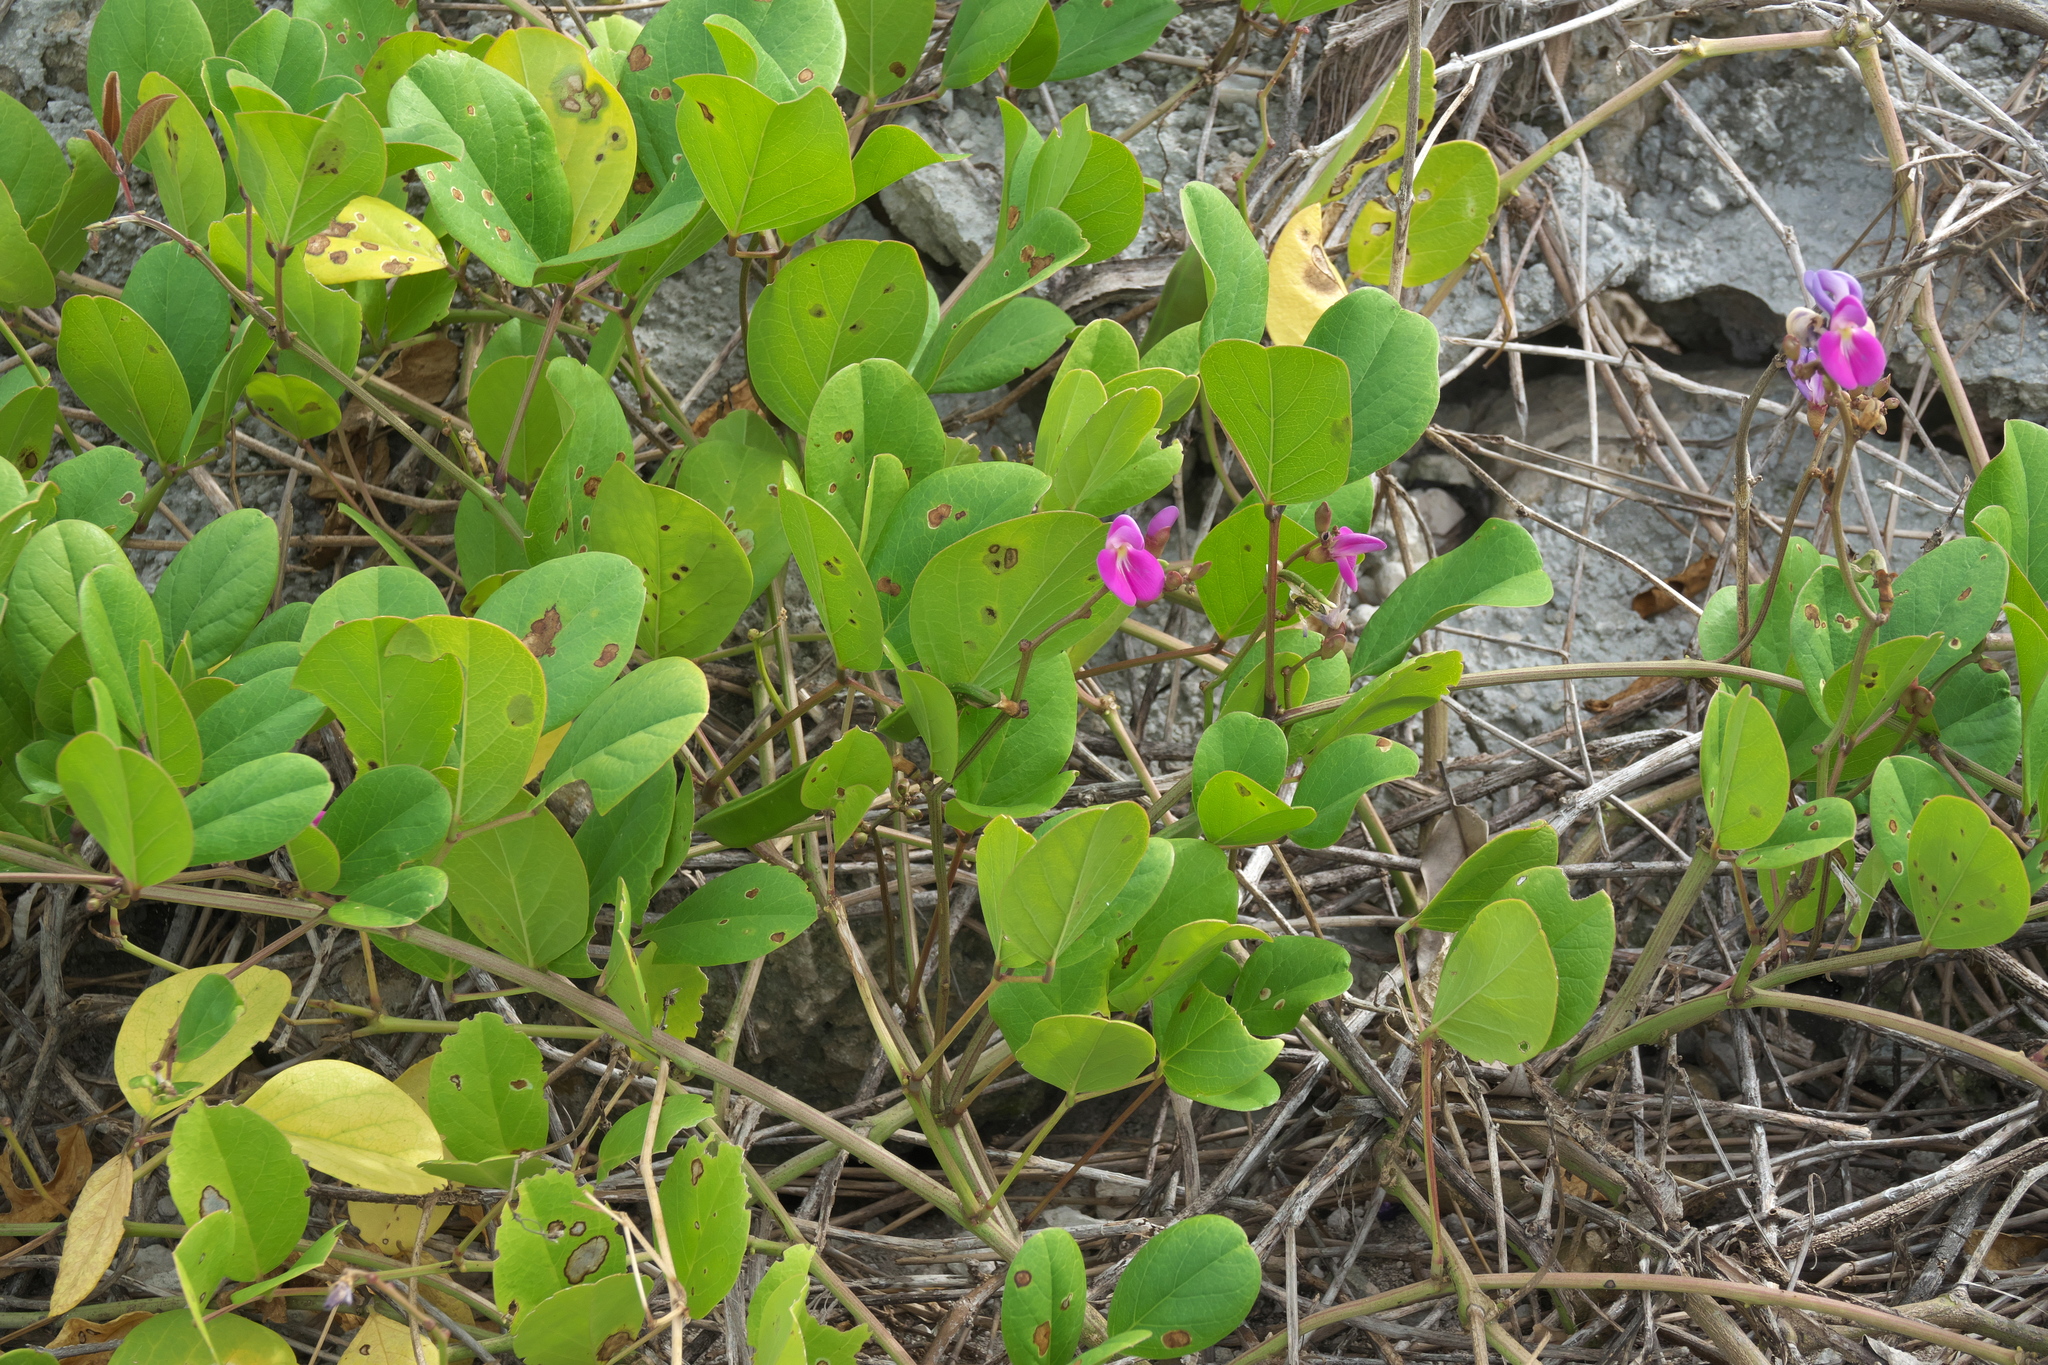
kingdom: Plantae
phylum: Tracheophyta
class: Magnoliopsida
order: Fabales
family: Fabaceae
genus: Canavalia
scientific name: Canavalia rosea
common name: Beach-bean
